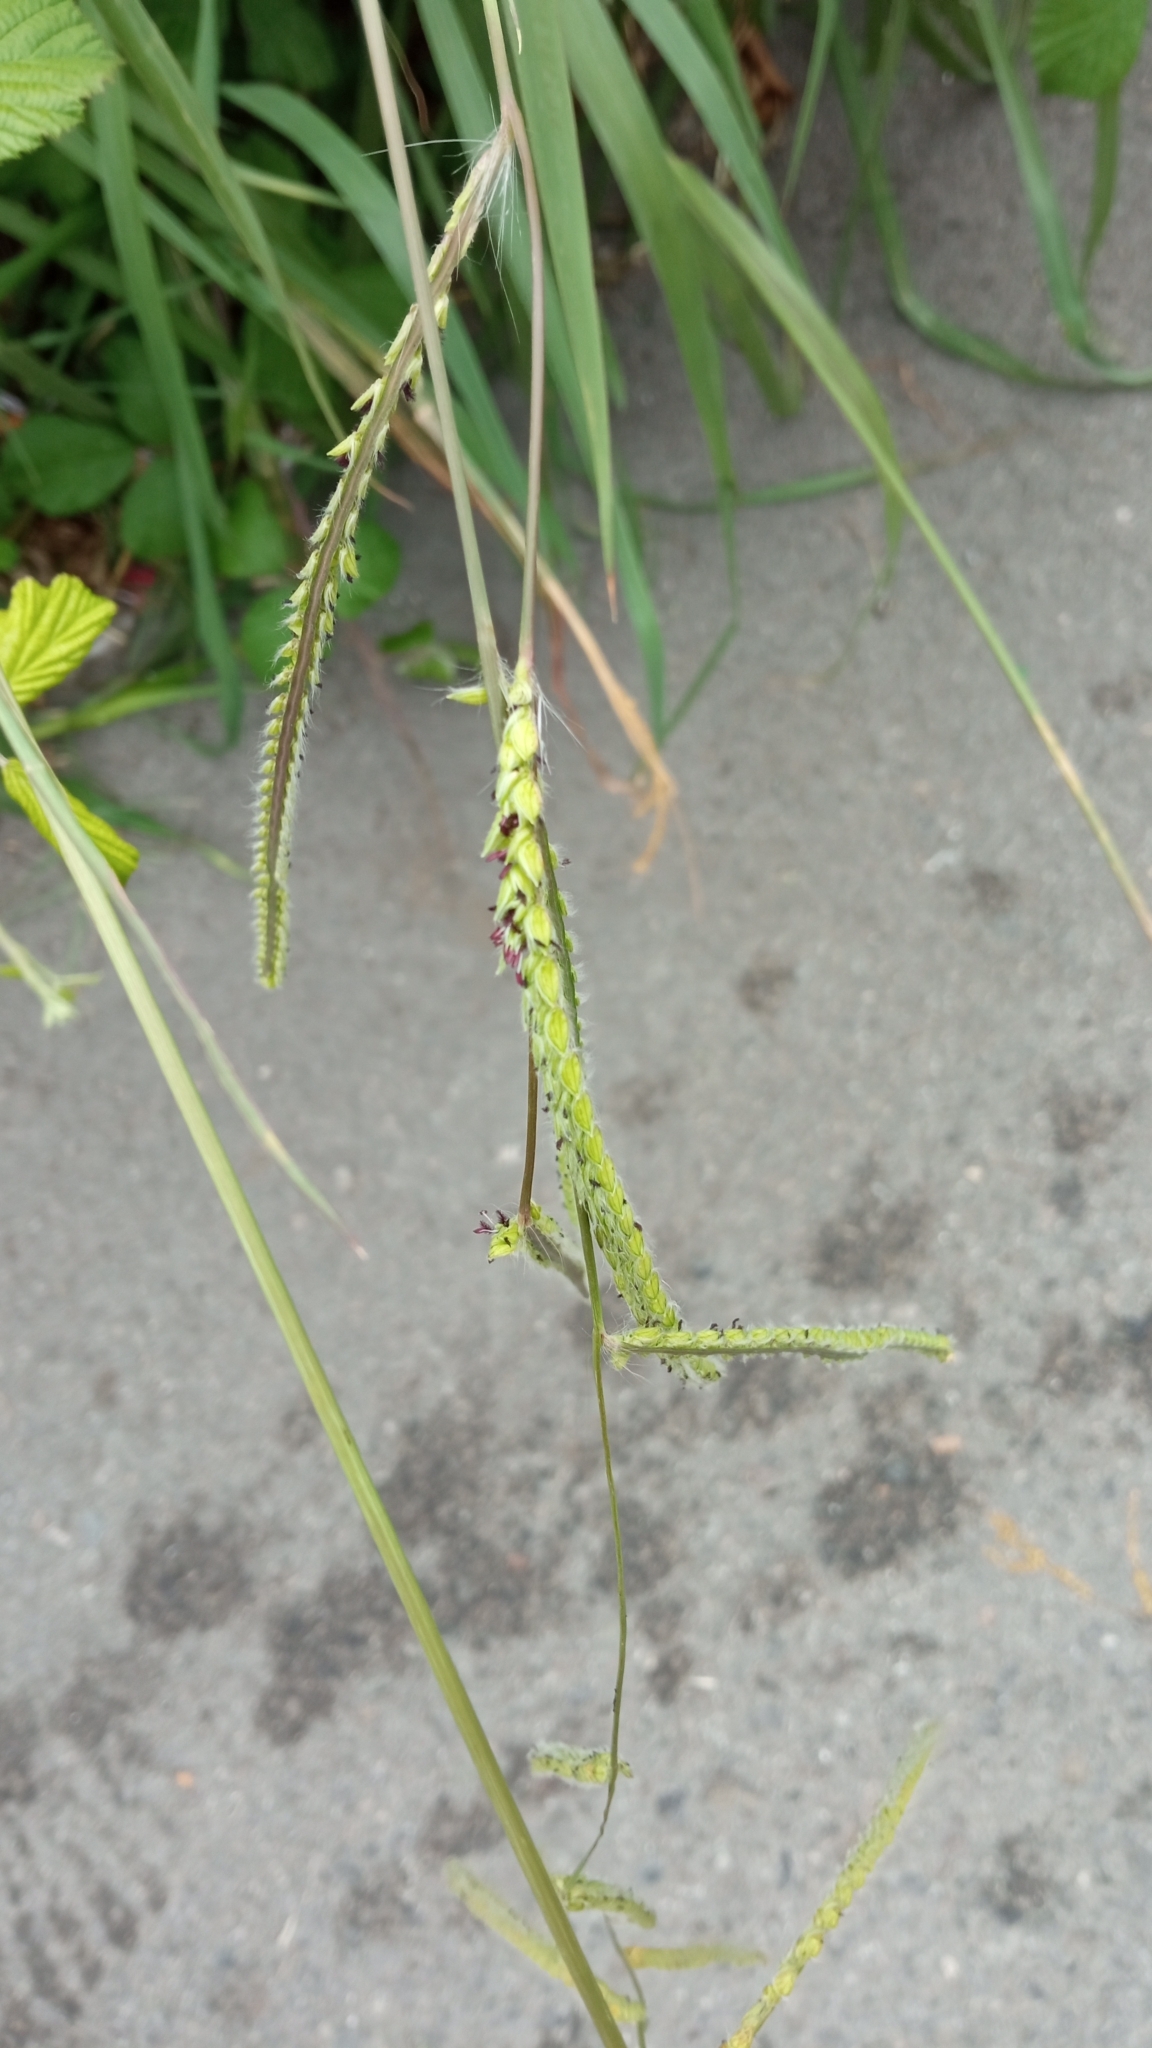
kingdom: Plantae
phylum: Tracheophyta
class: Liliopsida
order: Poales
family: Poaceae
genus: Paspalum
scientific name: Paspalum dilatatum
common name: Dallisgrass
